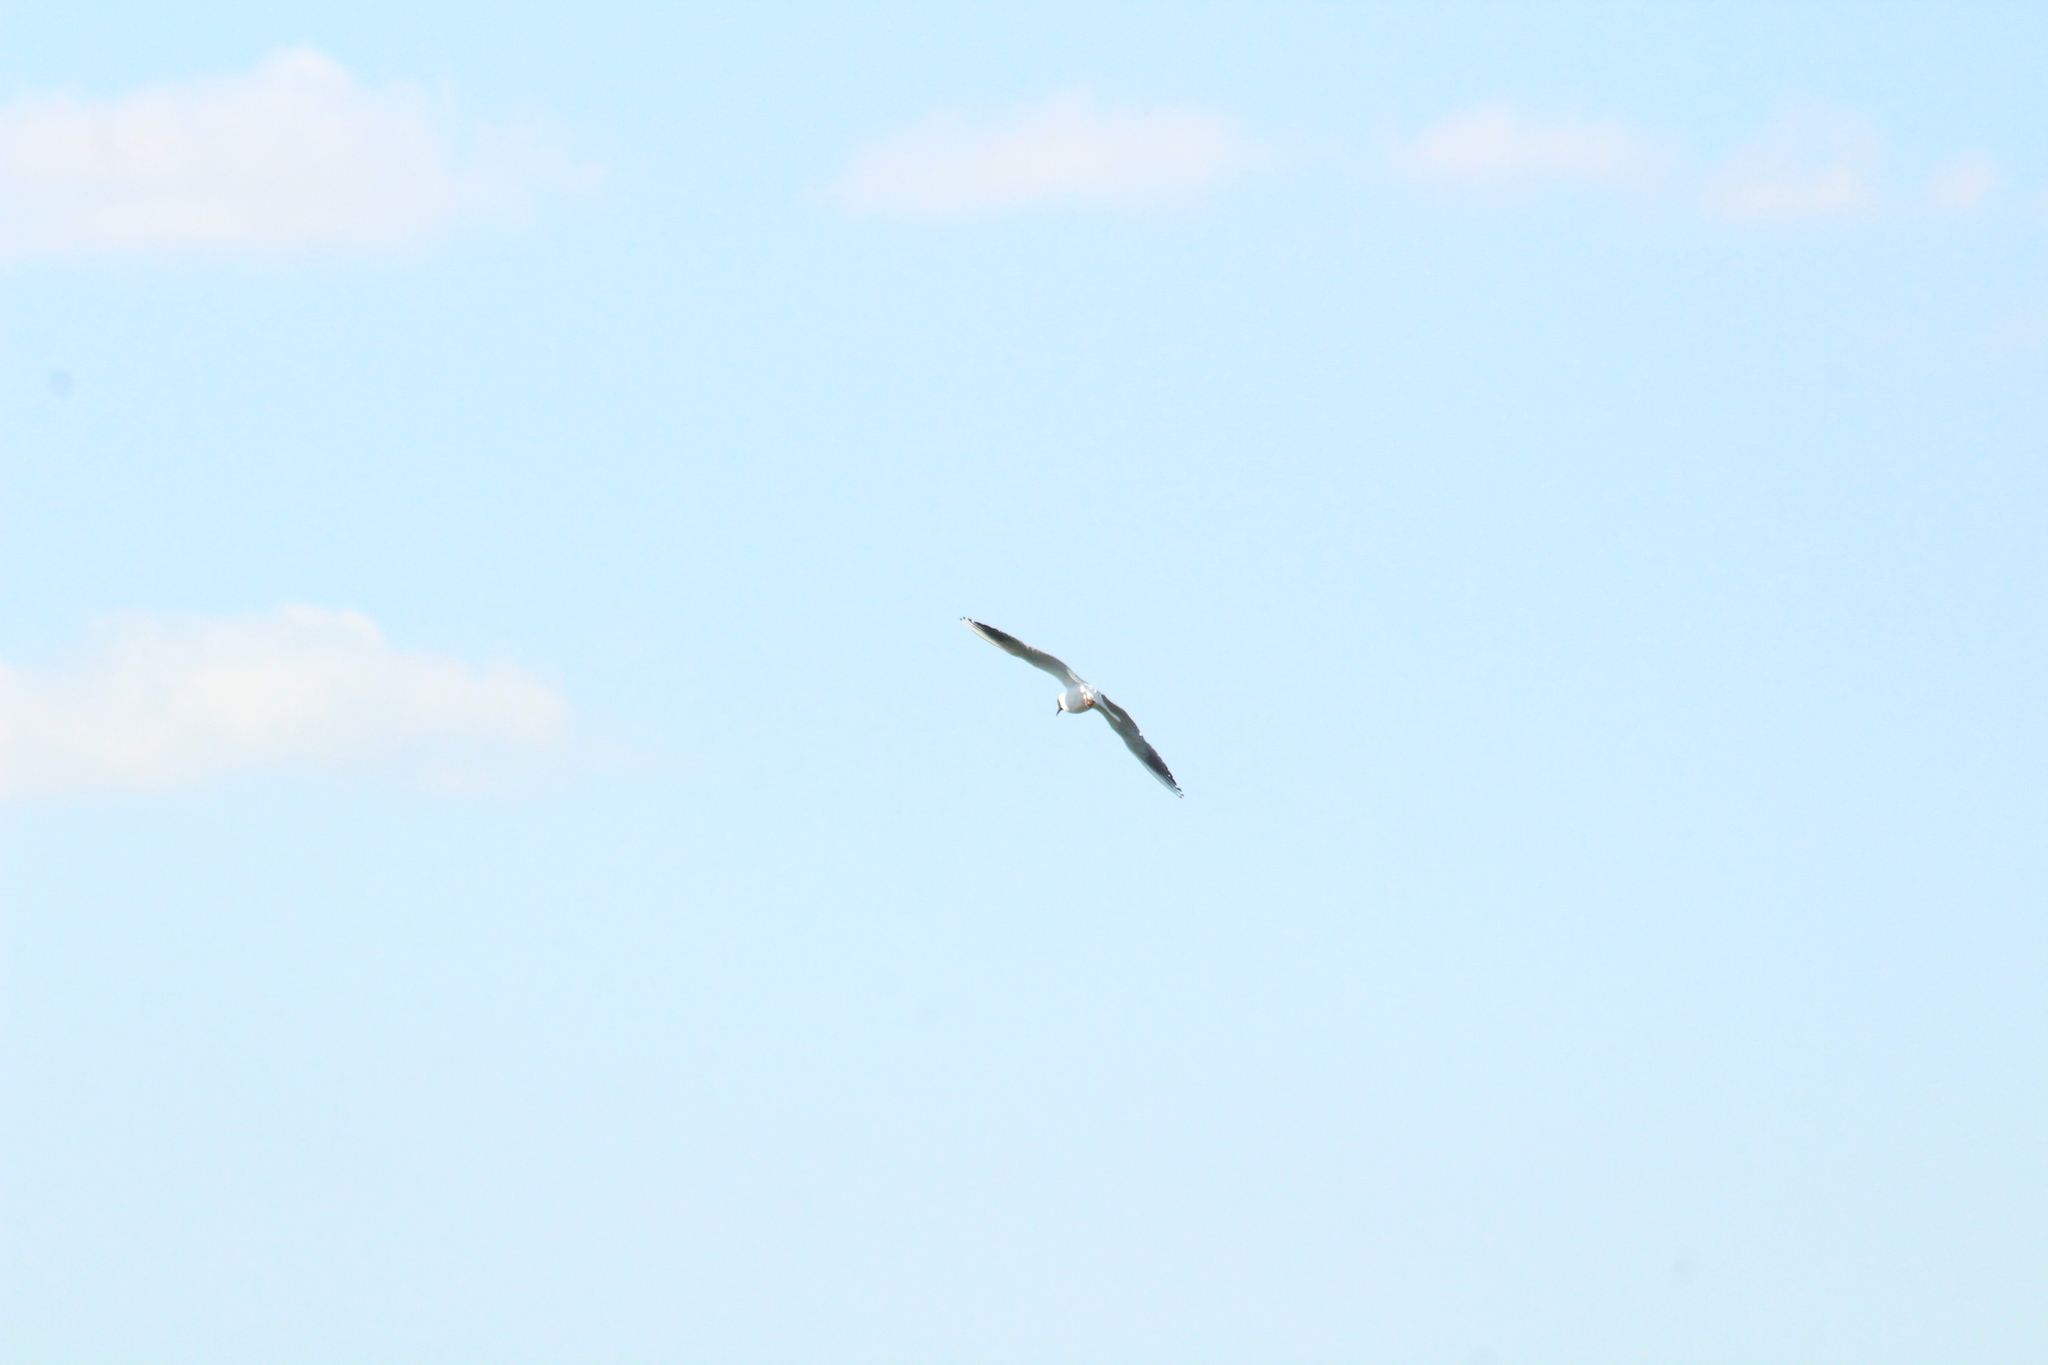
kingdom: Animalia
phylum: Chordata
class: Aves
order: Charadriiformes
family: Laridae
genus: Chroicocephalus
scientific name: Chroicocephalus ridibundus
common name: Black-headed gull
